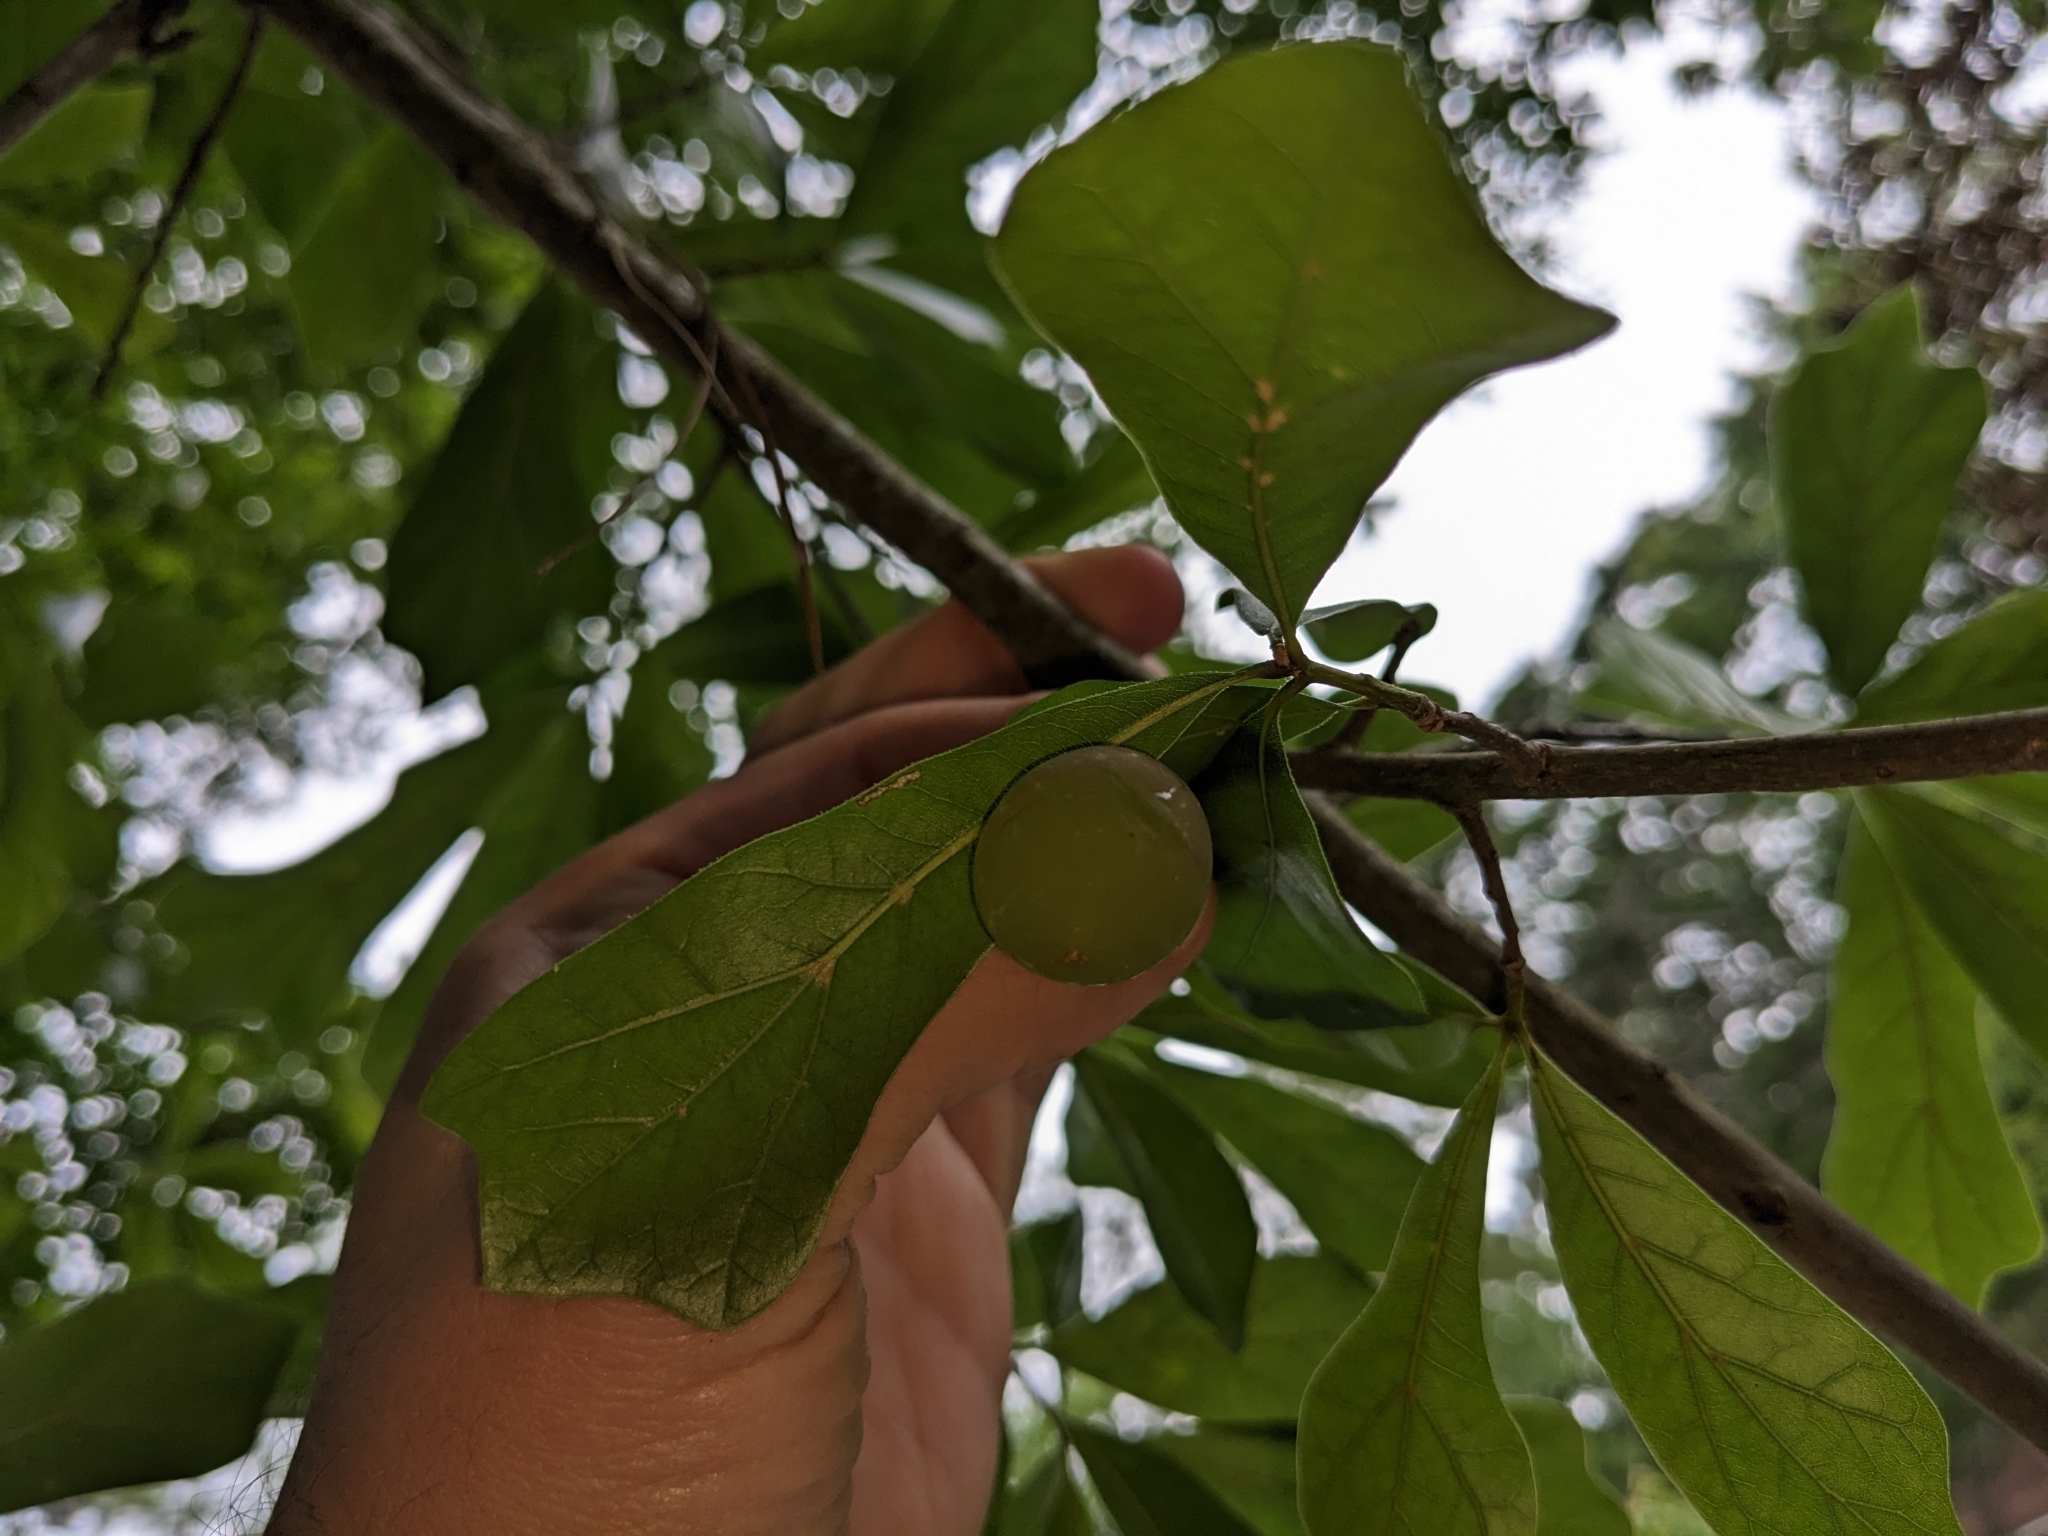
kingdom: Animalia
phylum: Arthropoda
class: Insecta
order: Hymenoptera
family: Cynipidae
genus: Amphibolips
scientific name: Amphibolips
